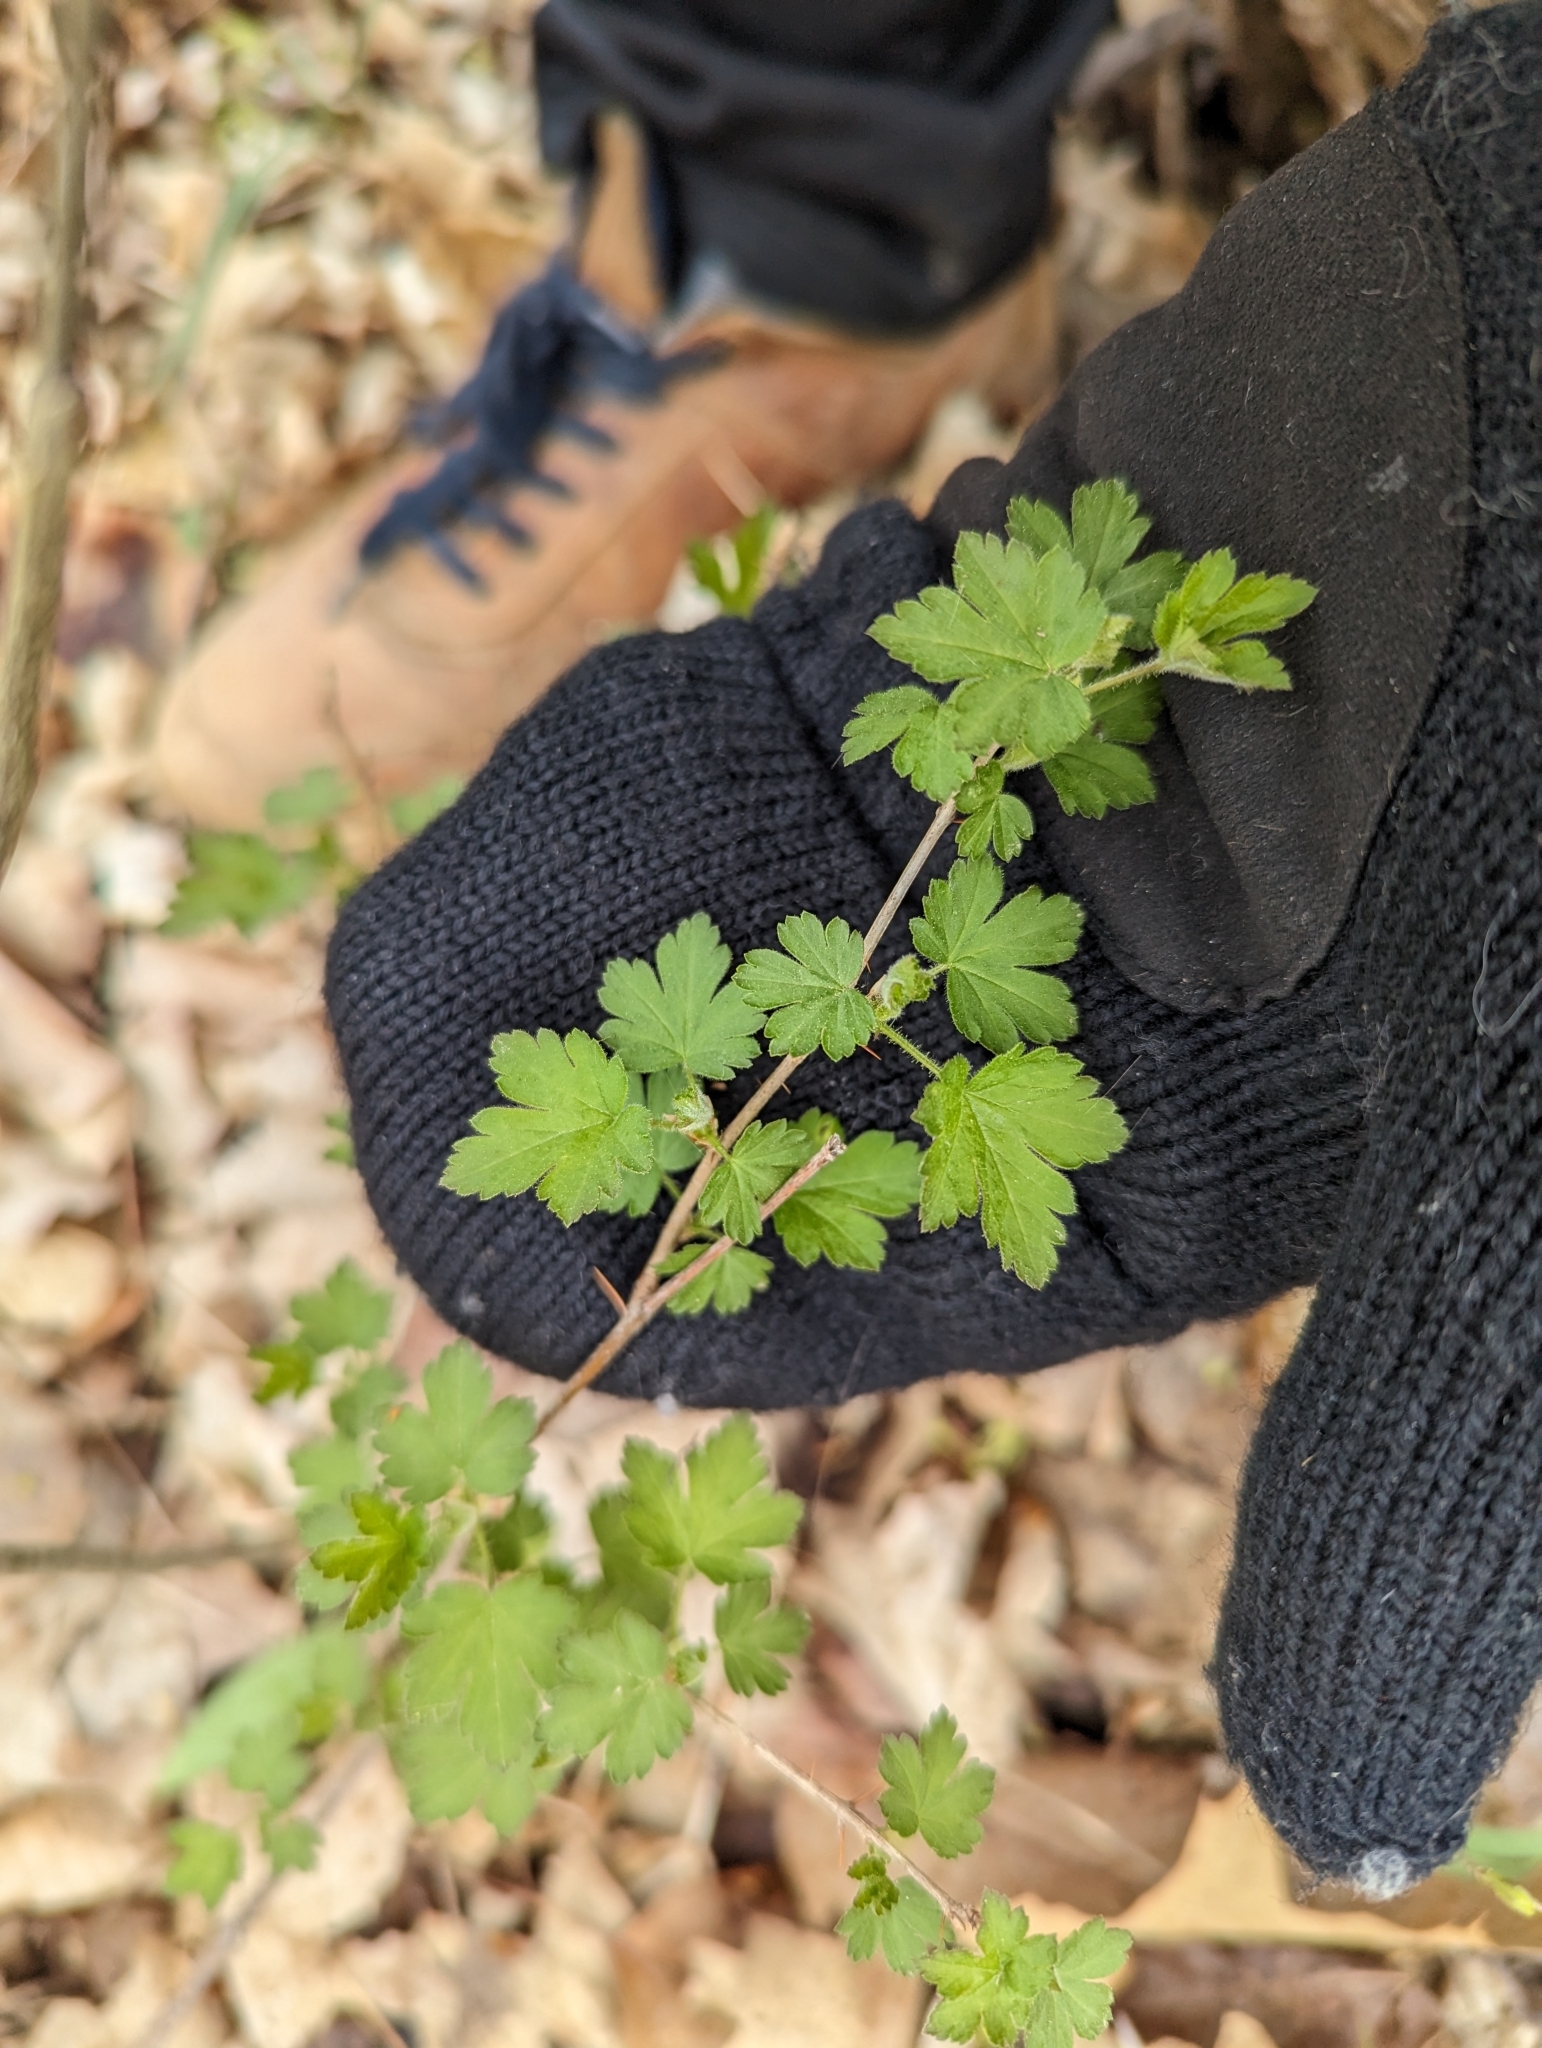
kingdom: Plantae
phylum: Tracheophyta
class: Magnoliopsida
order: Saxifragales
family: Grossulariaceae
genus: Ribes
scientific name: Ribes cynosbati
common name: American gooseberry
